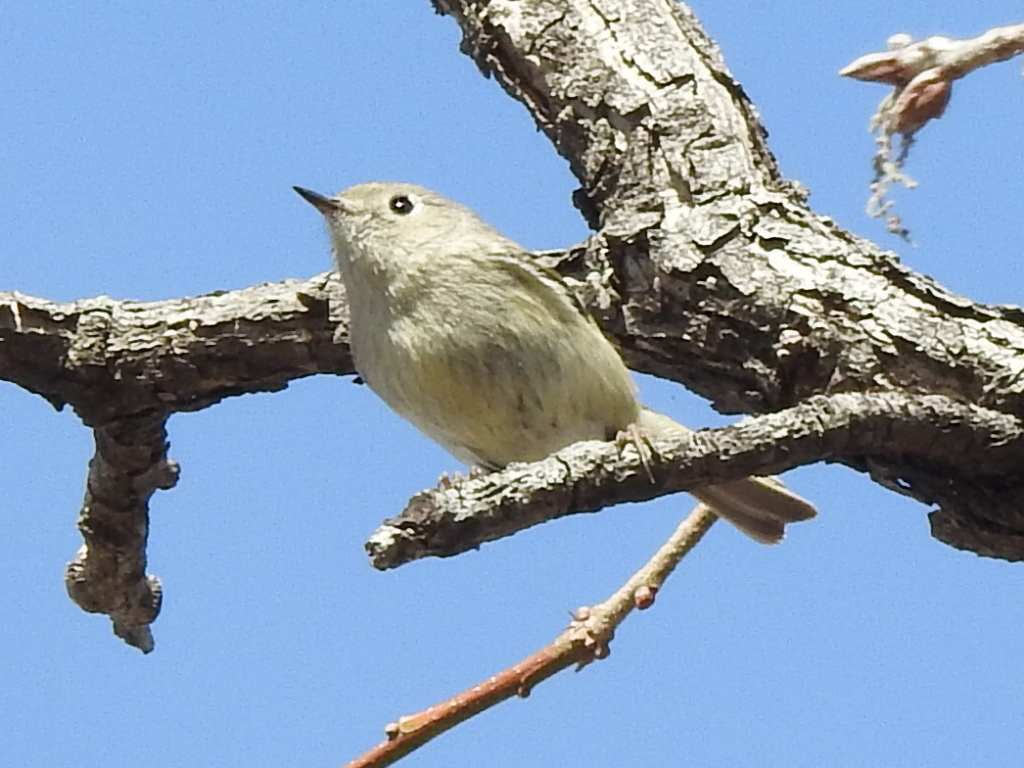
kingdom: Animalia
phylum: Chordata
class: Aves
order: Passeriformes
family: Regulidae
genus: Regulus
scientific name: Regulus calendula
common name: Ruby-crowned kinglet
